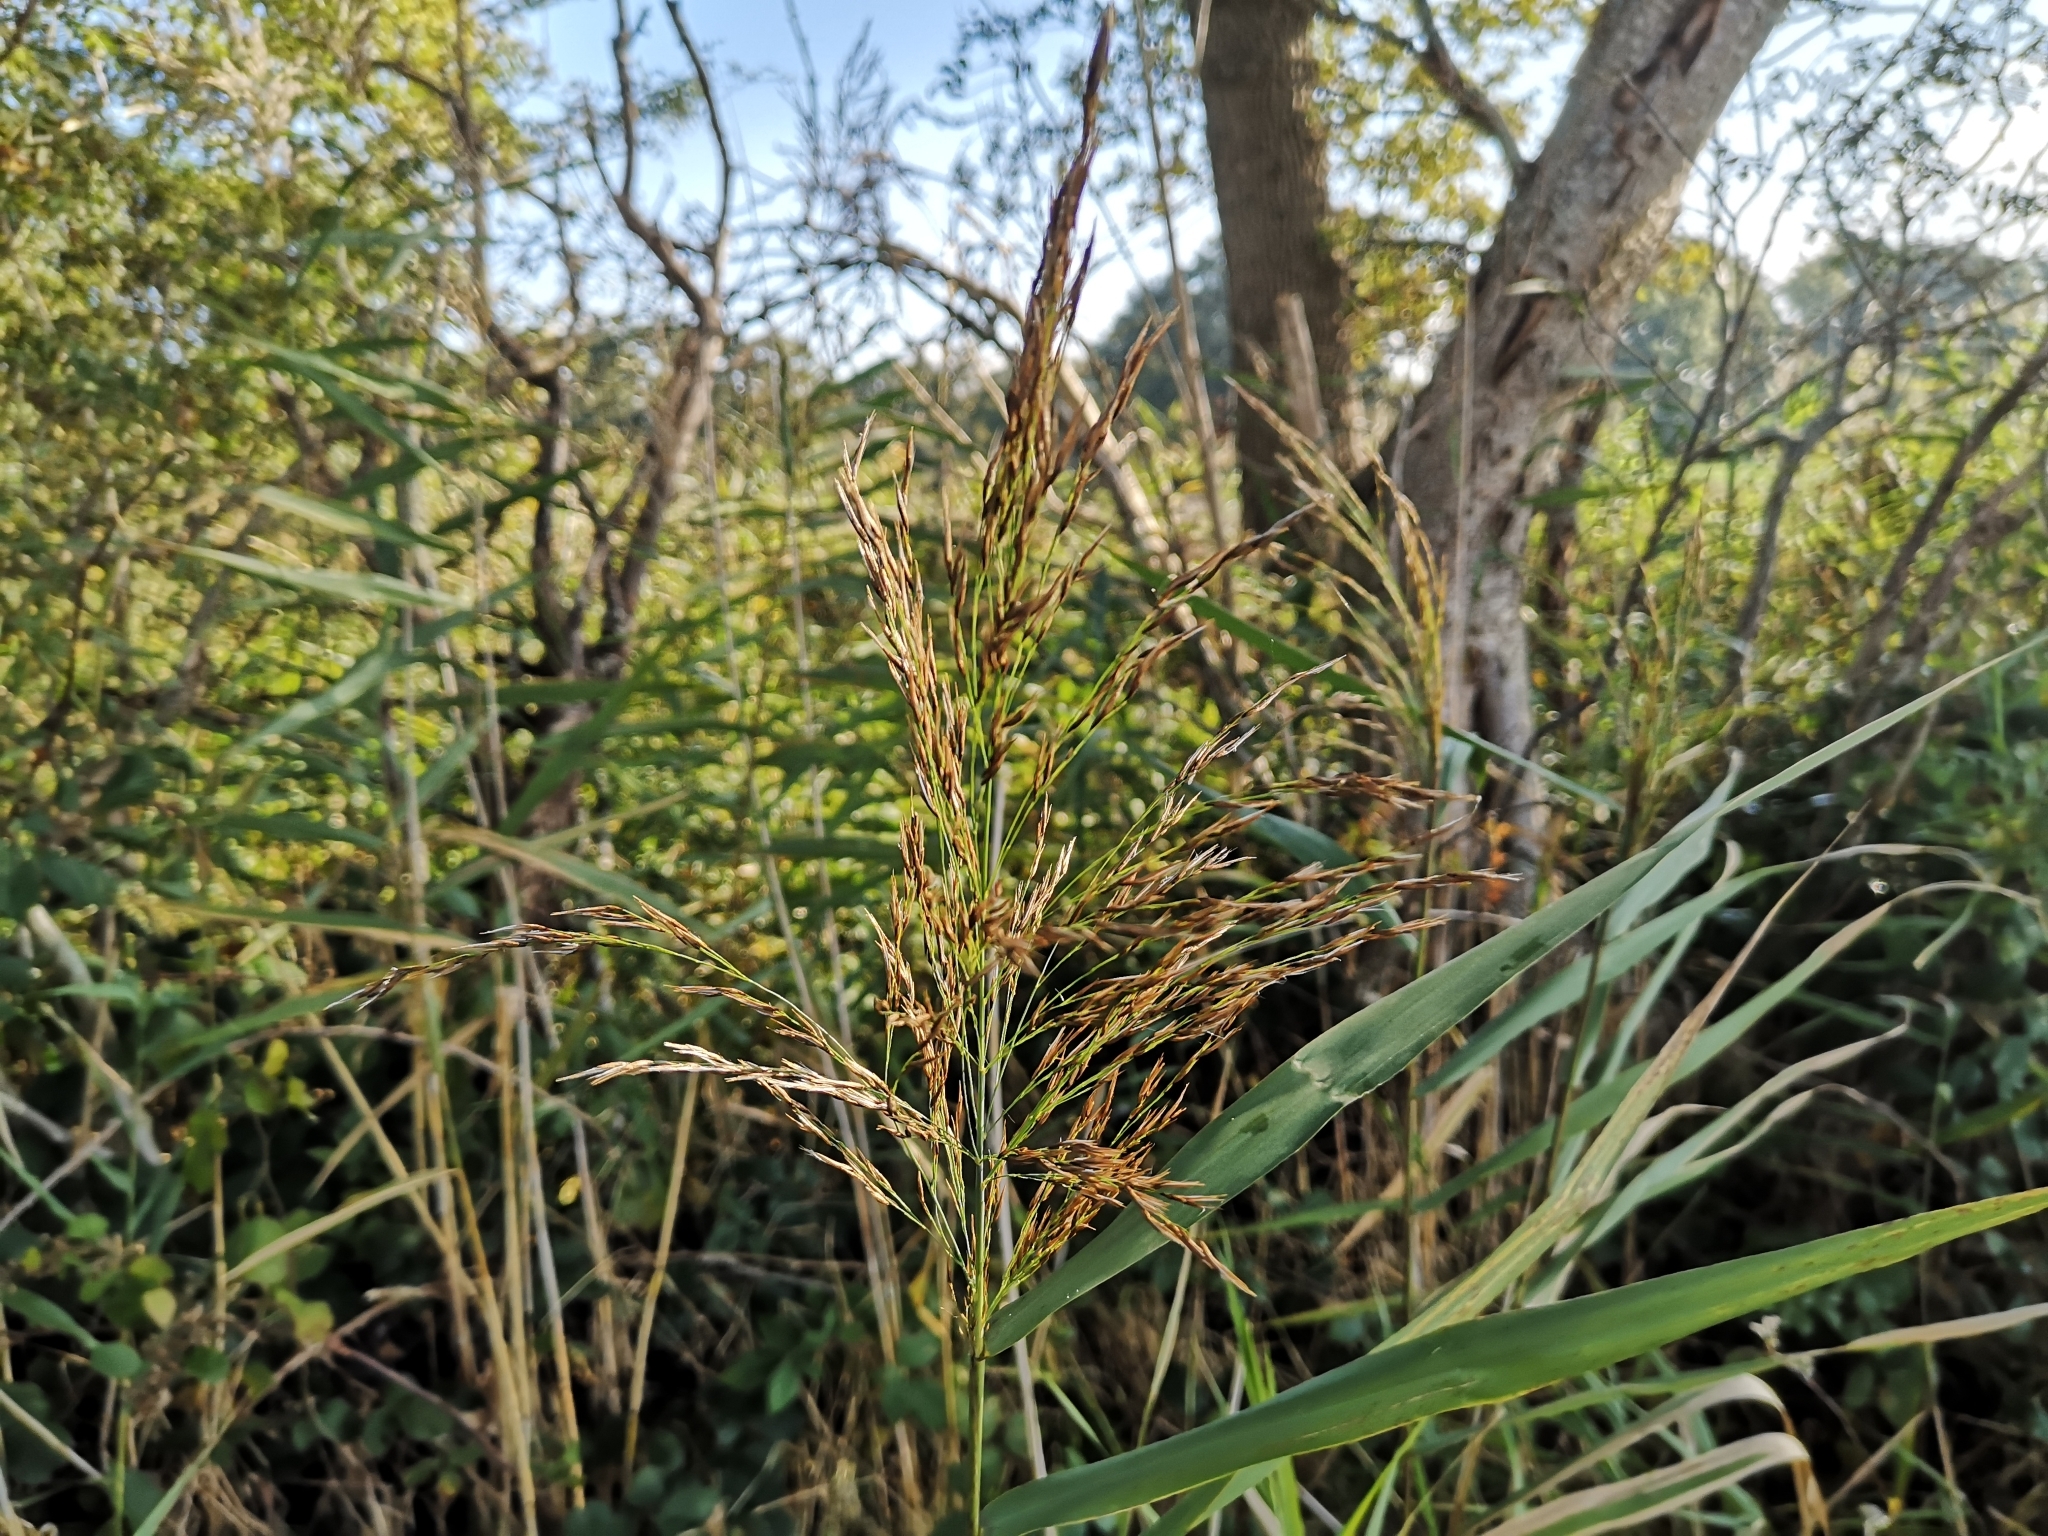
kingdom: Plantae
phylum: Tracheophyta
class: Liliopsida
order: Poales
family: Poaceae
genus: Phragmites
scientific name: Phragmites australis
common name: Common reed
